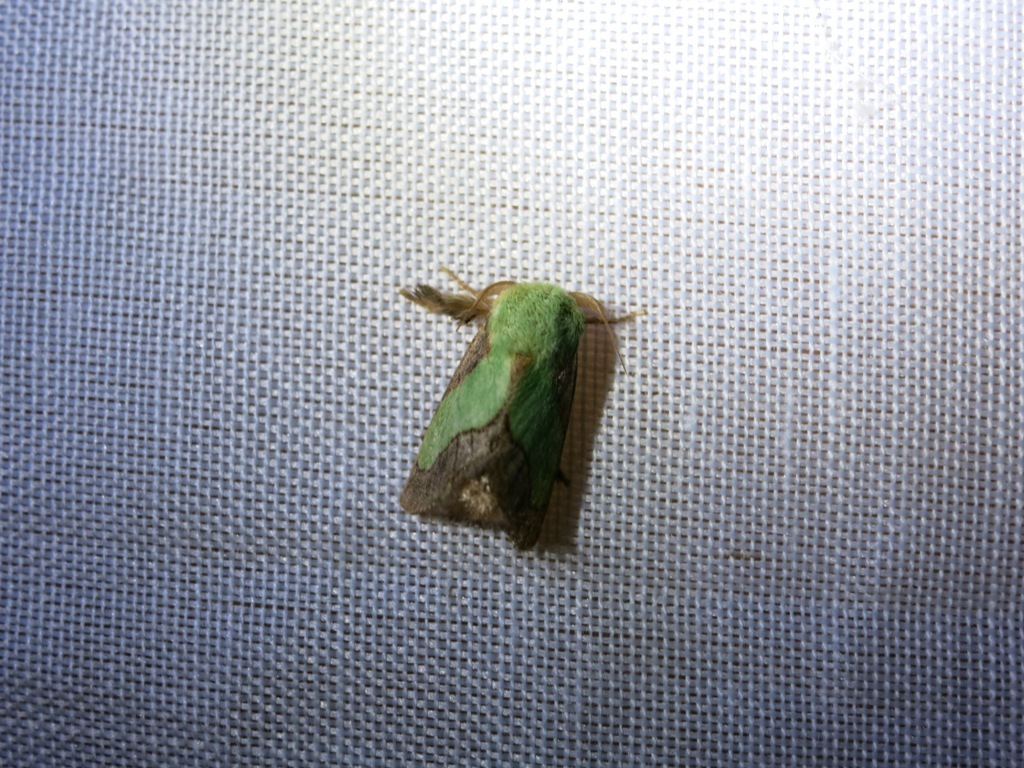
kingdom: Animalia
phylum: Arthropoda
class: Insecta
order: Lepidoptera
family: Limacodidae
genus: Parasa
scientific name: Parasa chloris
